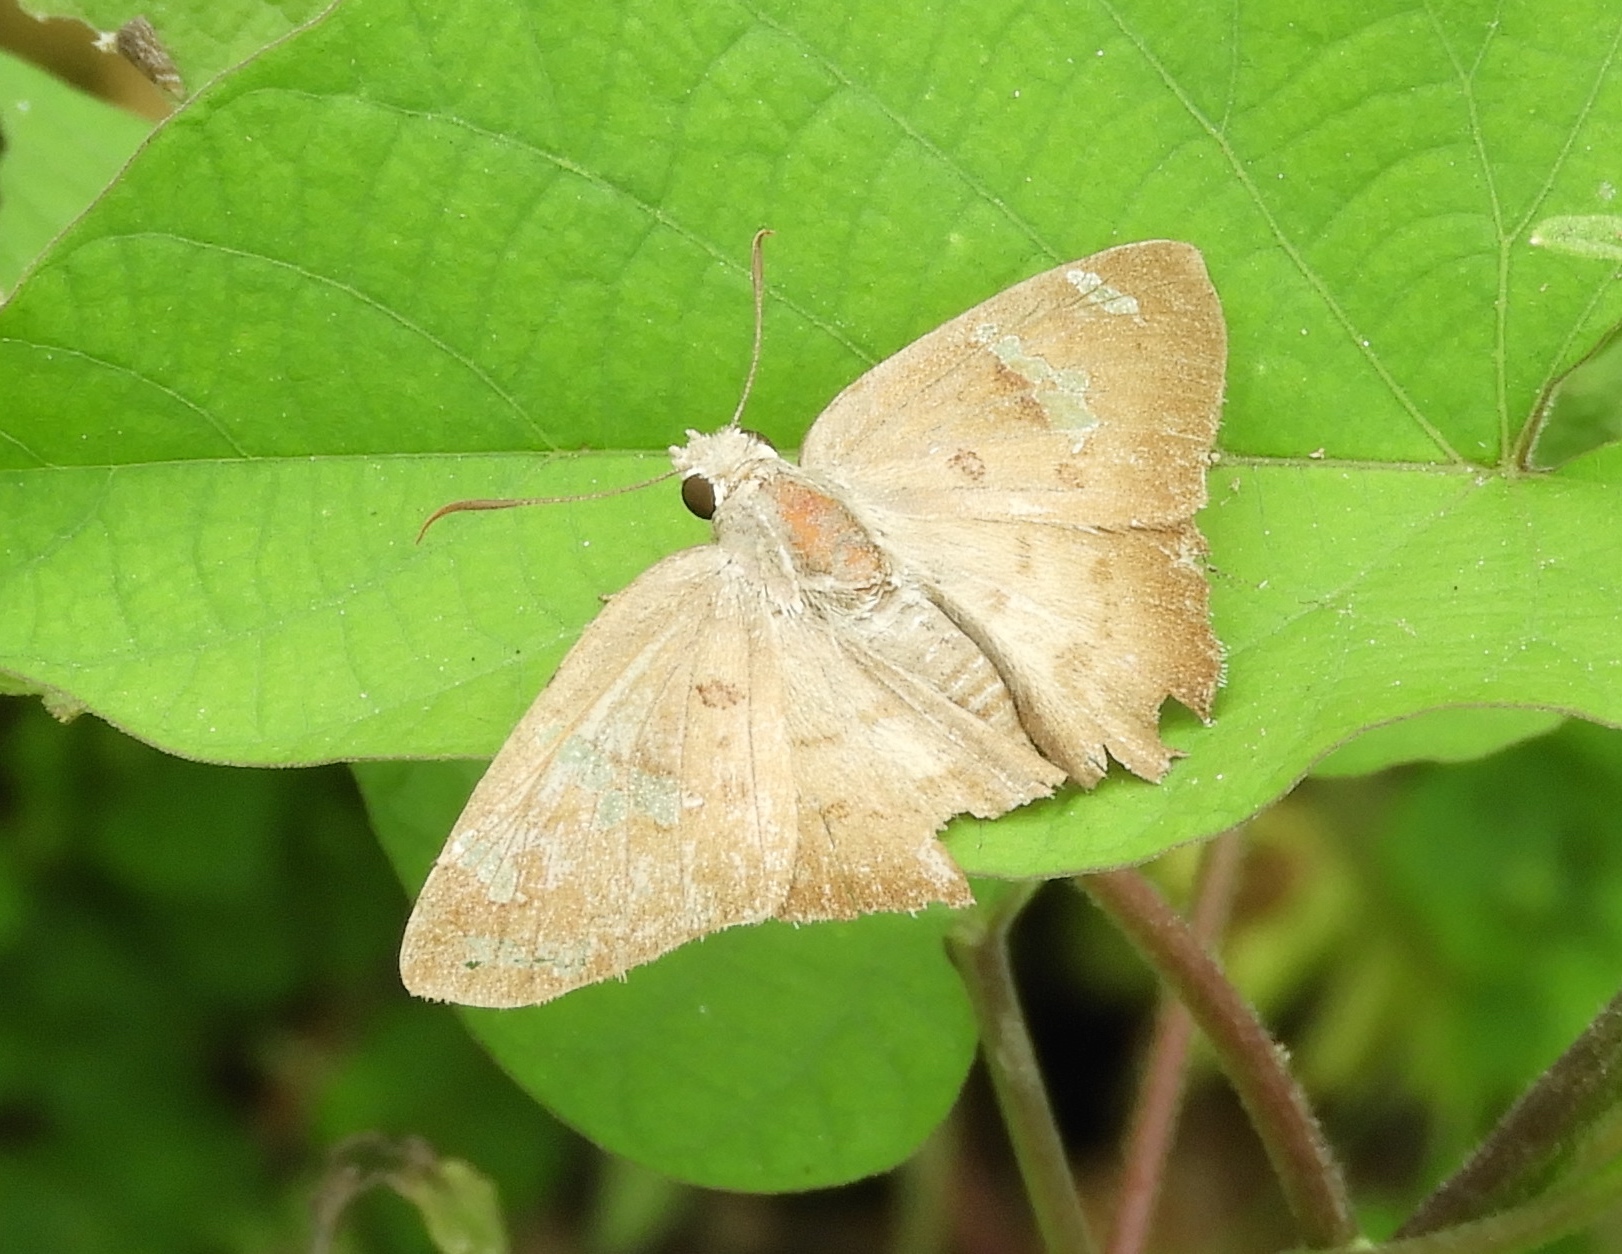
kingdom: Animalia
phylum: Arthropoda
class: Insecta
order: Lepidoptera
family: Hesperiidae
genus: Ectomis
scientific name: Ectomis
